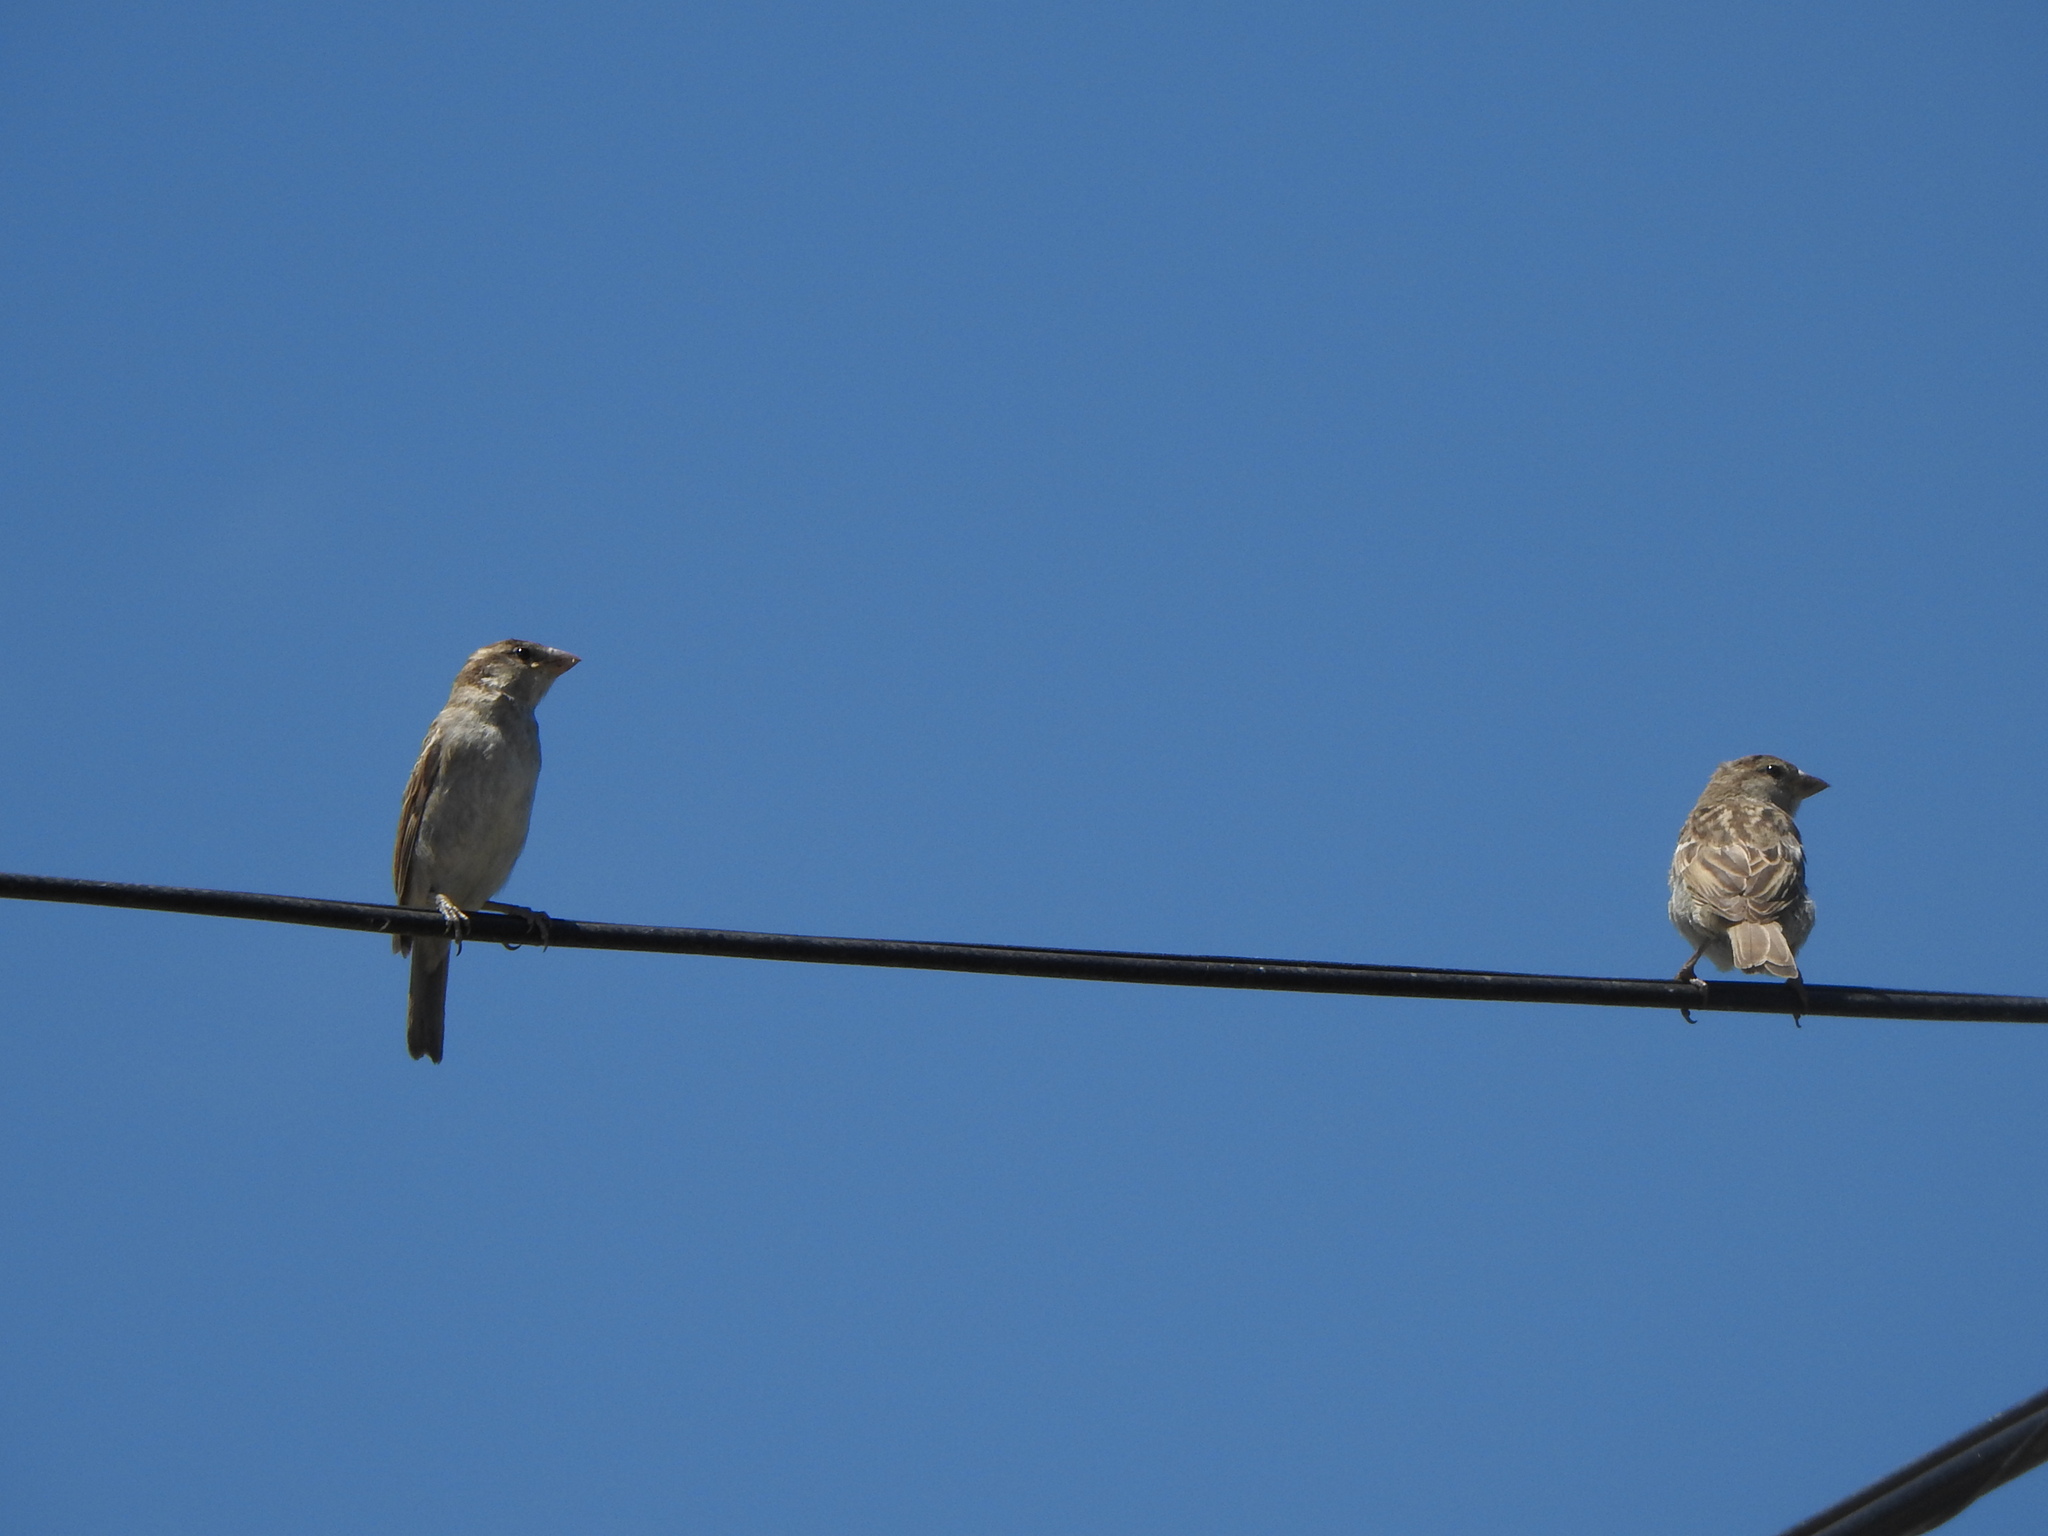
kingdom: Animalia
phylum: Chordata
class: Aves
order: Passeriformes
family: Passeridae
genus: Passer
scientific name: Passer domesticus
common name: House sparrow
